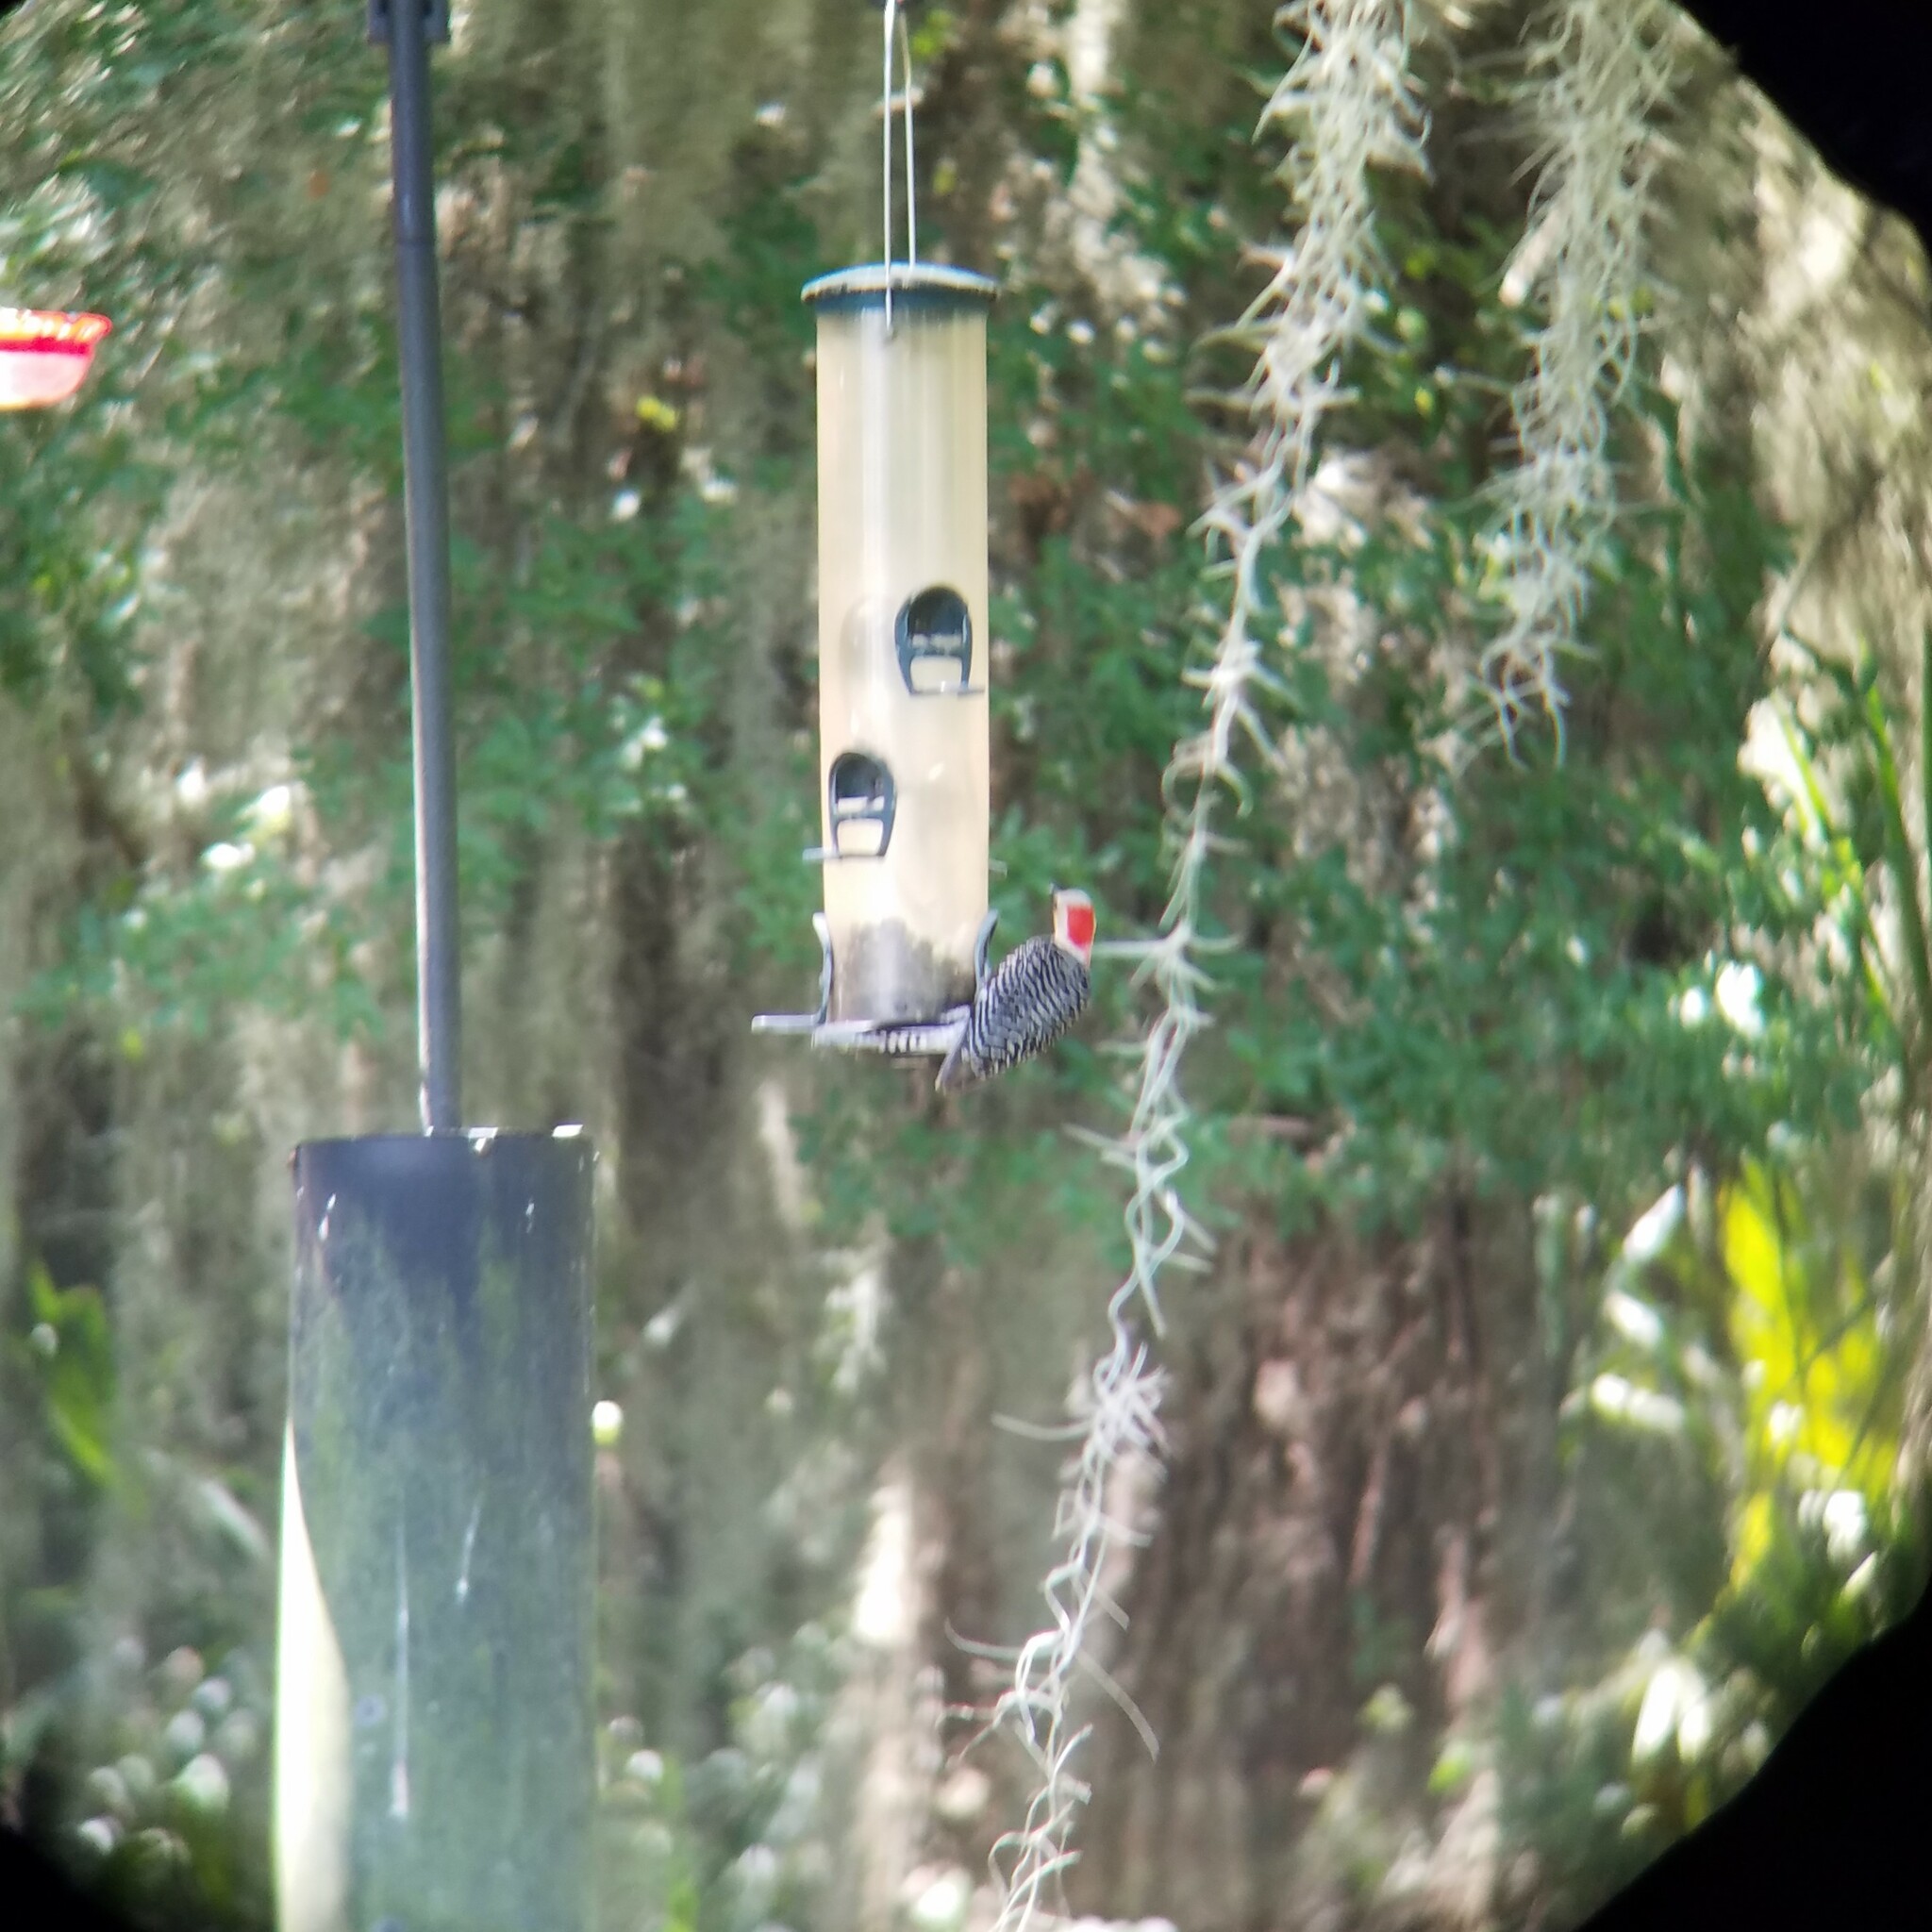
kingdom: Animalia
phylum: Chordata
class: Aves
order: Piciformes
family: Picidae
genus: Melanerpes
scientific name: Melanerpes carolinus
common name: Red-bellied woodpecker
